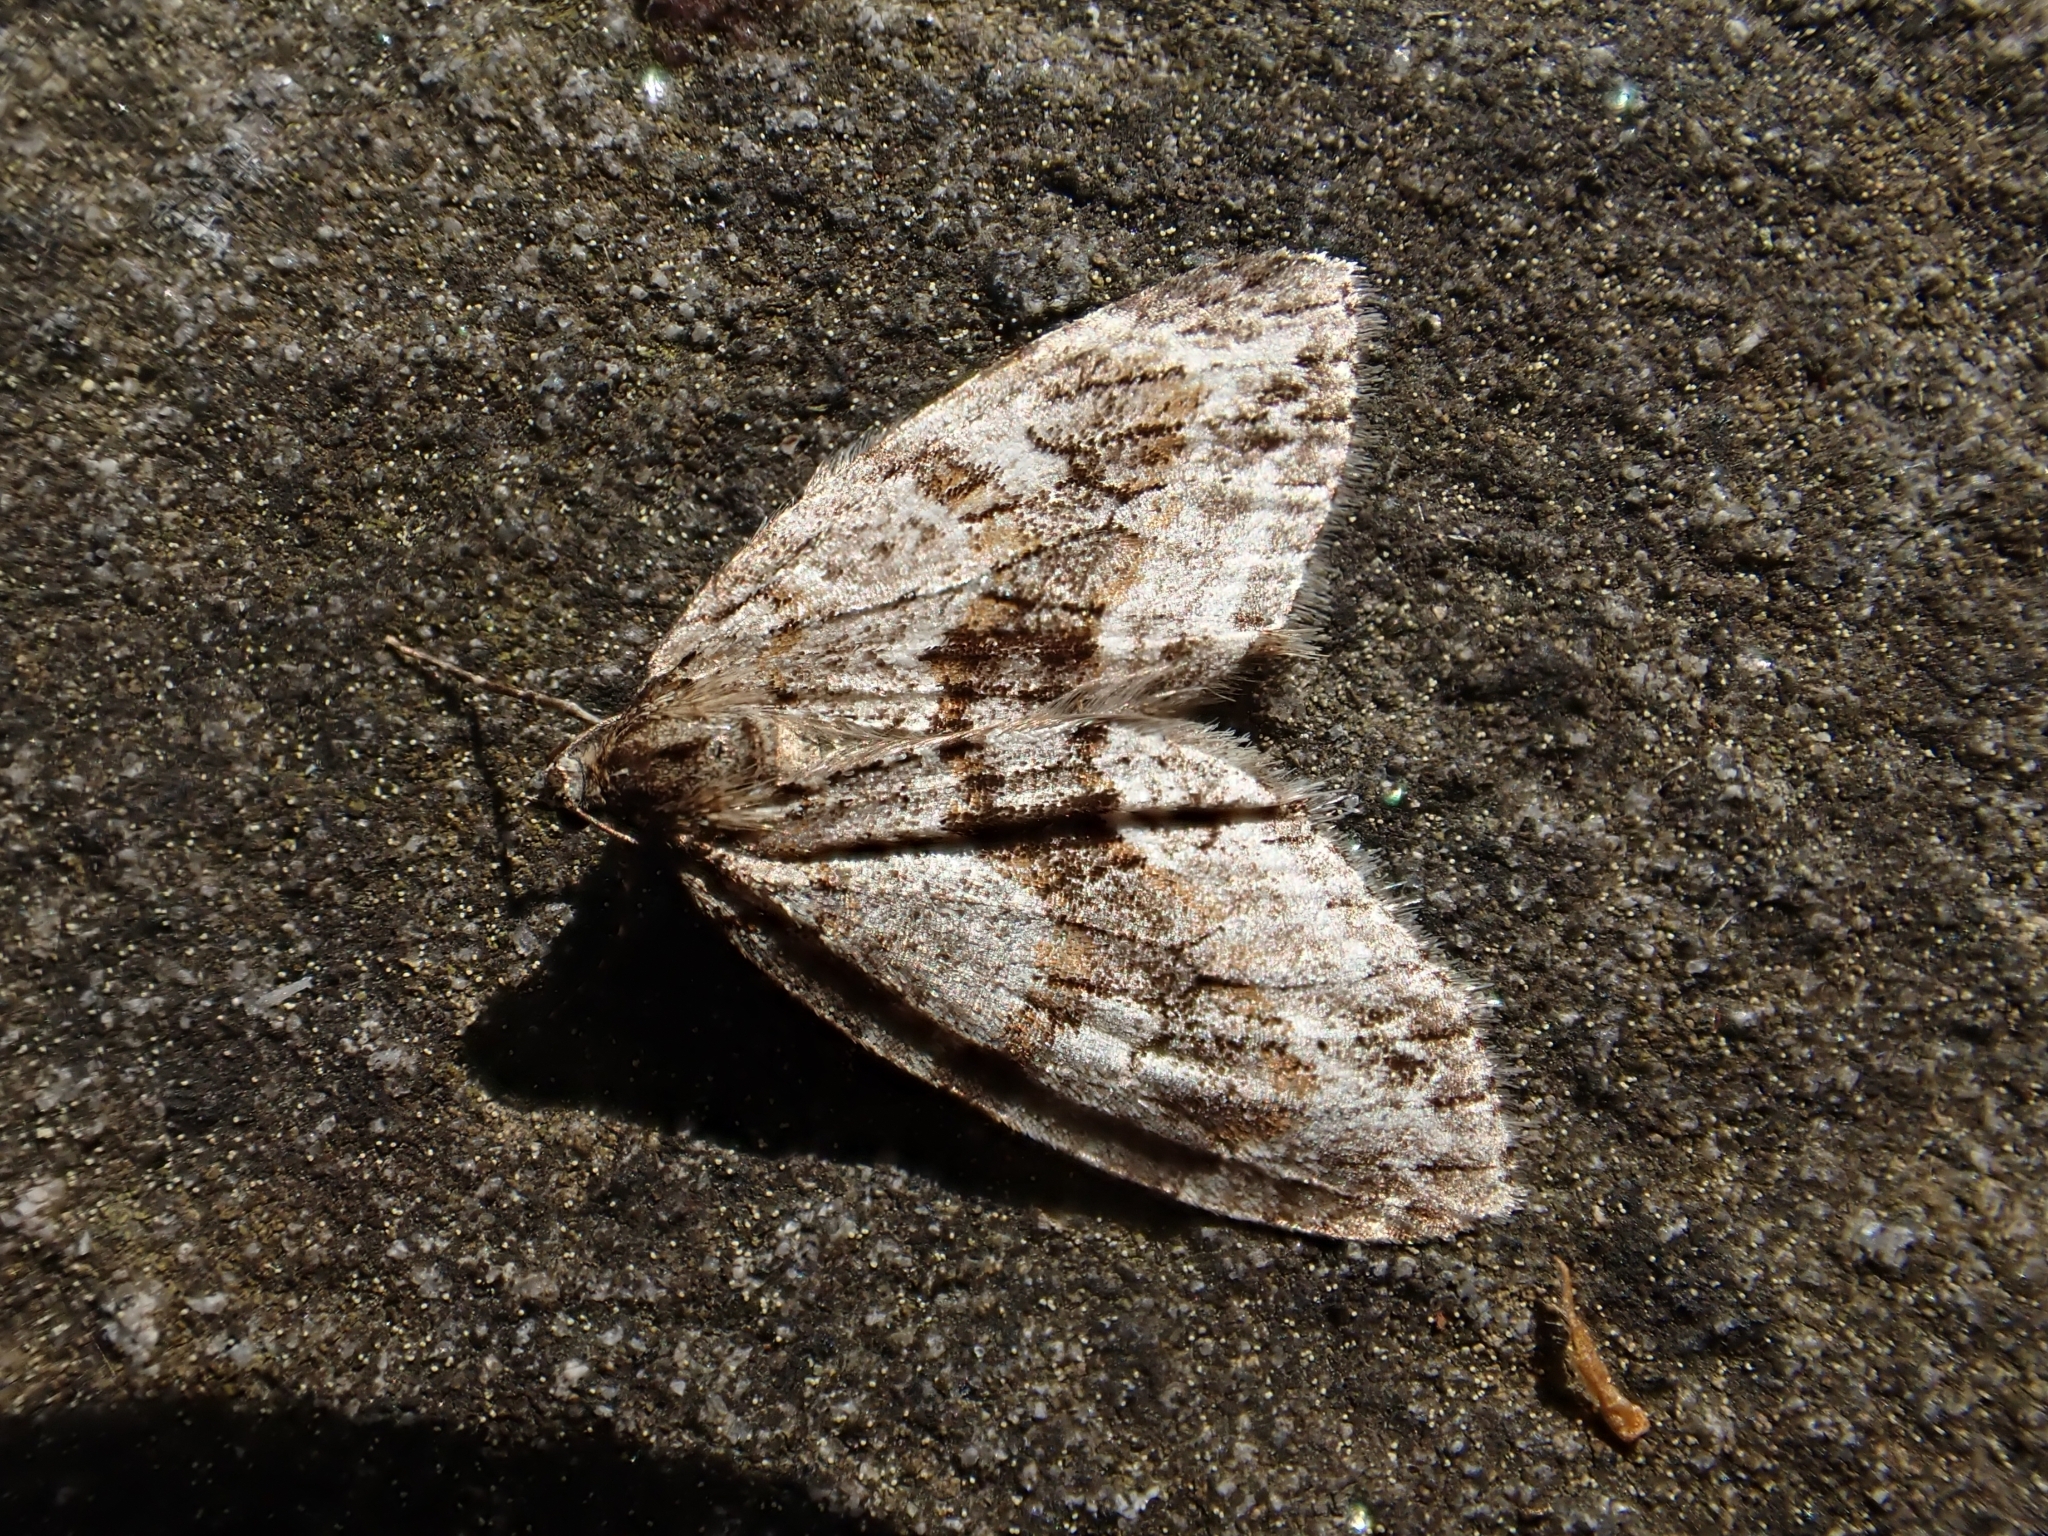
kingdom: Animalia
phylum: Arthropoda
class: Insecta
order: Lepidoptera
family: Geometridae
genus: Trichopteryx
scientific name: Trichopteryx polycommata
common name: Barred tooth-striped
